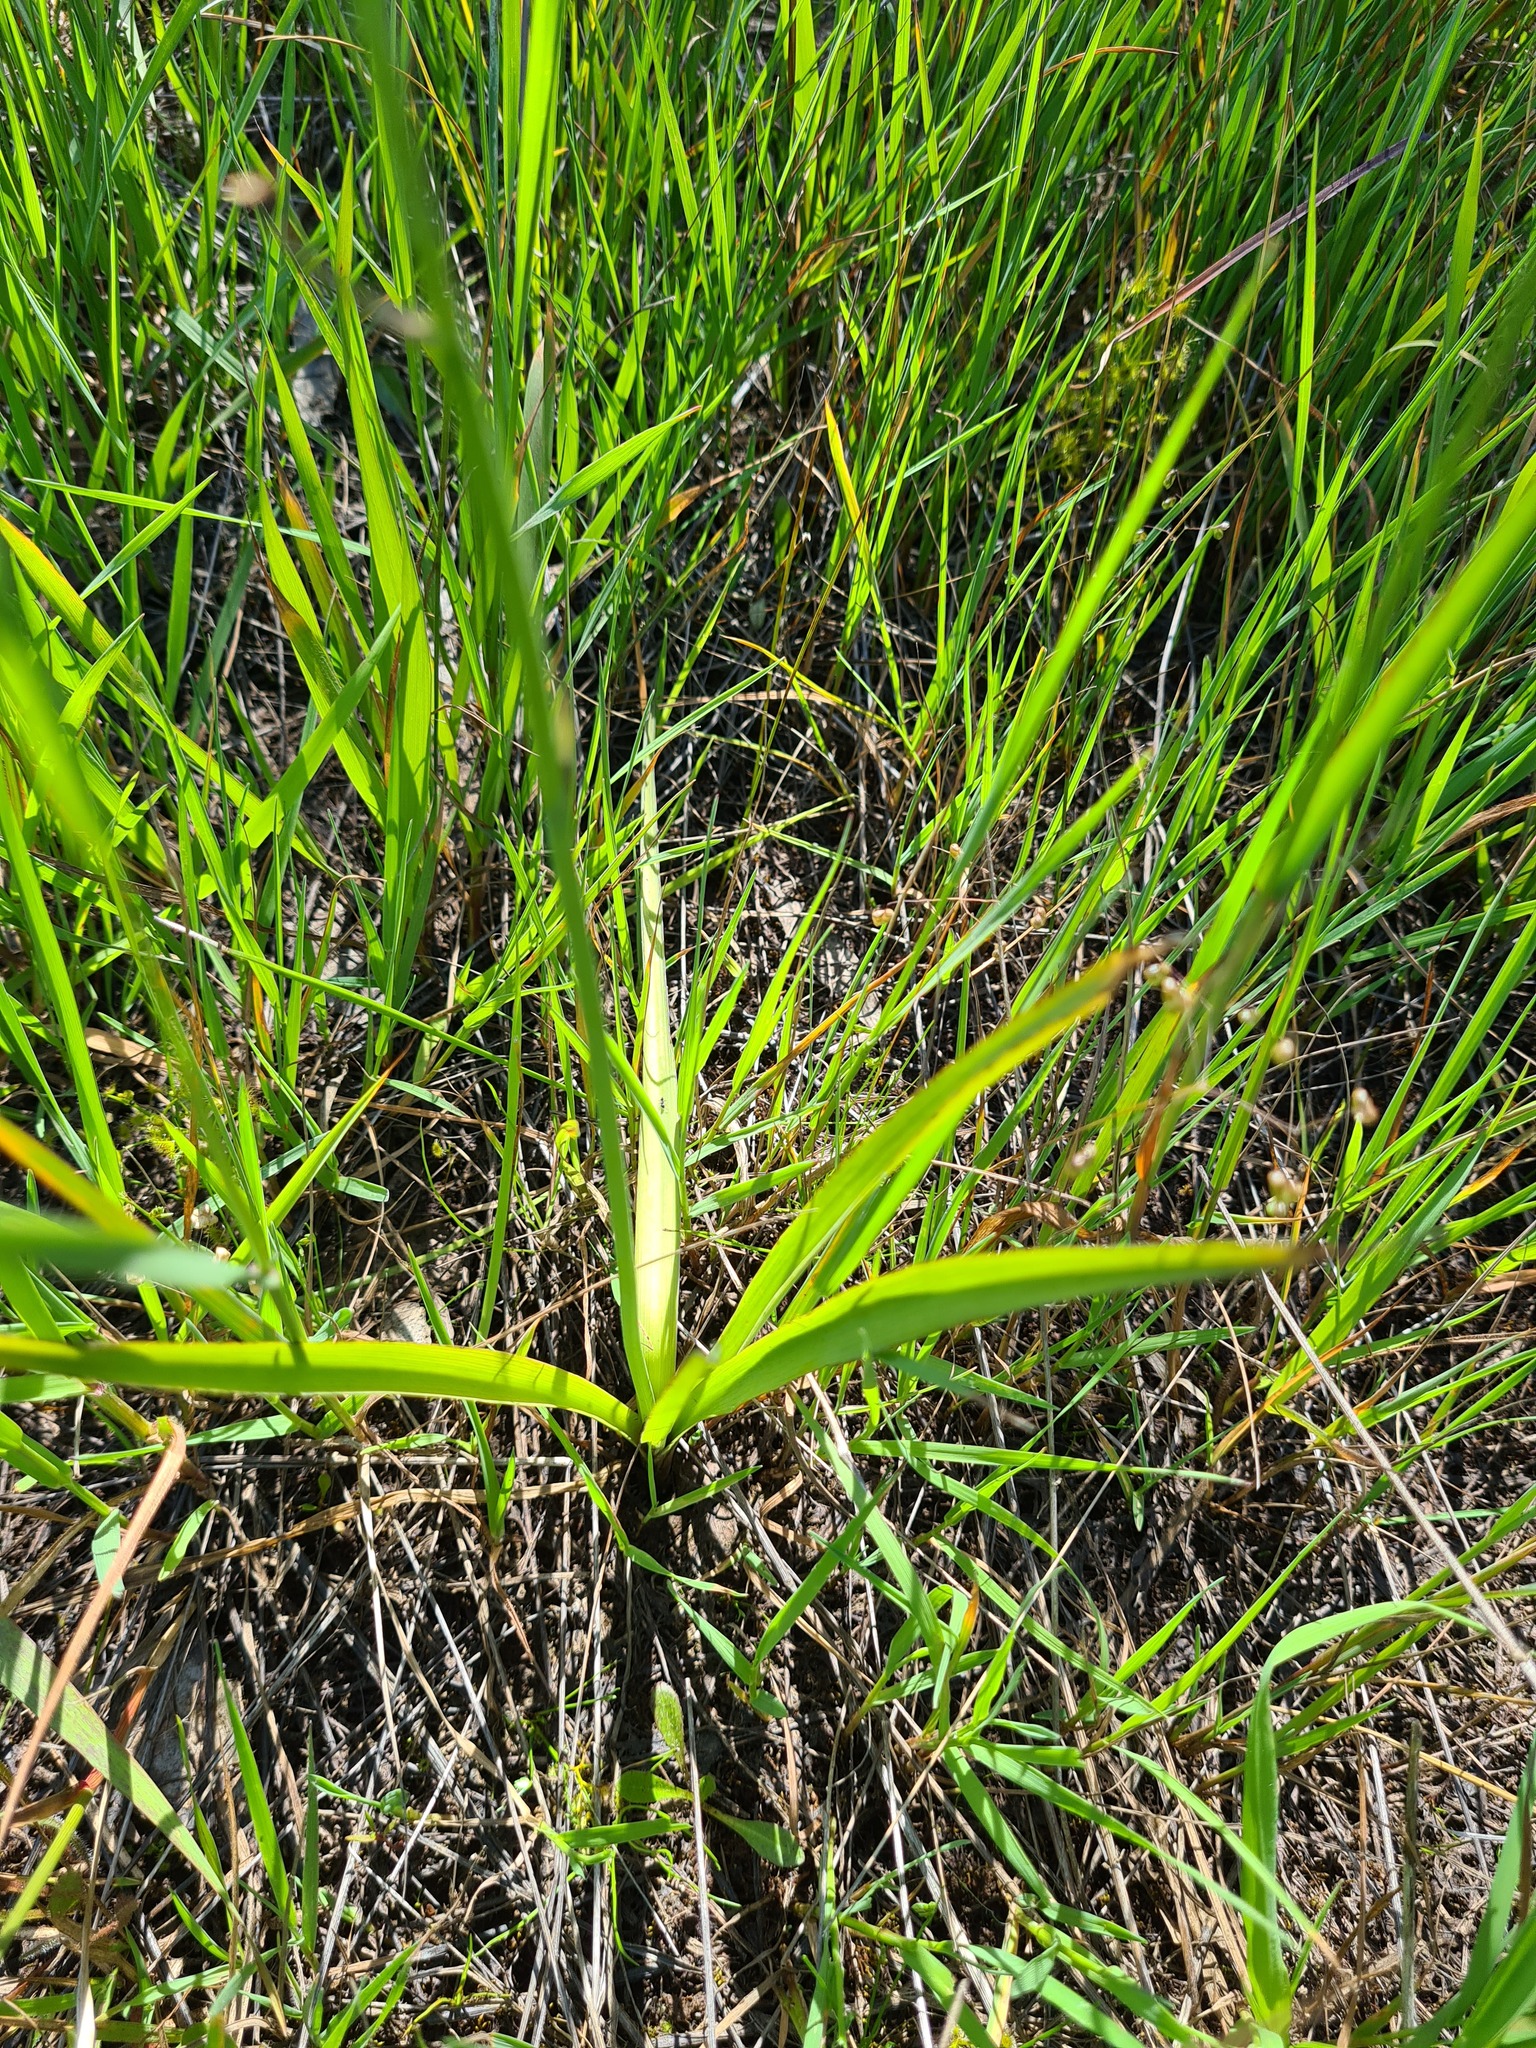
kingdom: Plantae
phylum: Tracheophyta
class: Liliopsida
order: Asparagales
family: Asparagaceae
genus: Arthropodium
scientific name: Arthropodium milleflorum
